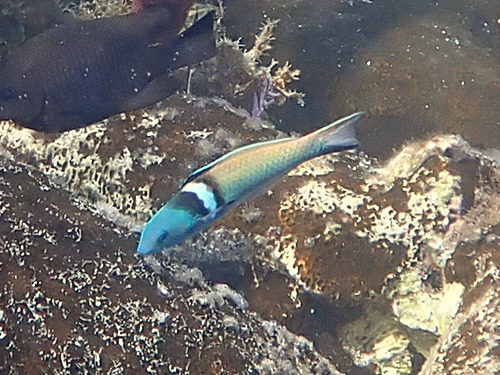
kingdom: Animalia
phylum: Chordata
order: Perciformes
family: Labridae
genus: Thalassoma
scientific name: Thalassoma bifasciatum
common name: Bluehead wrasse
